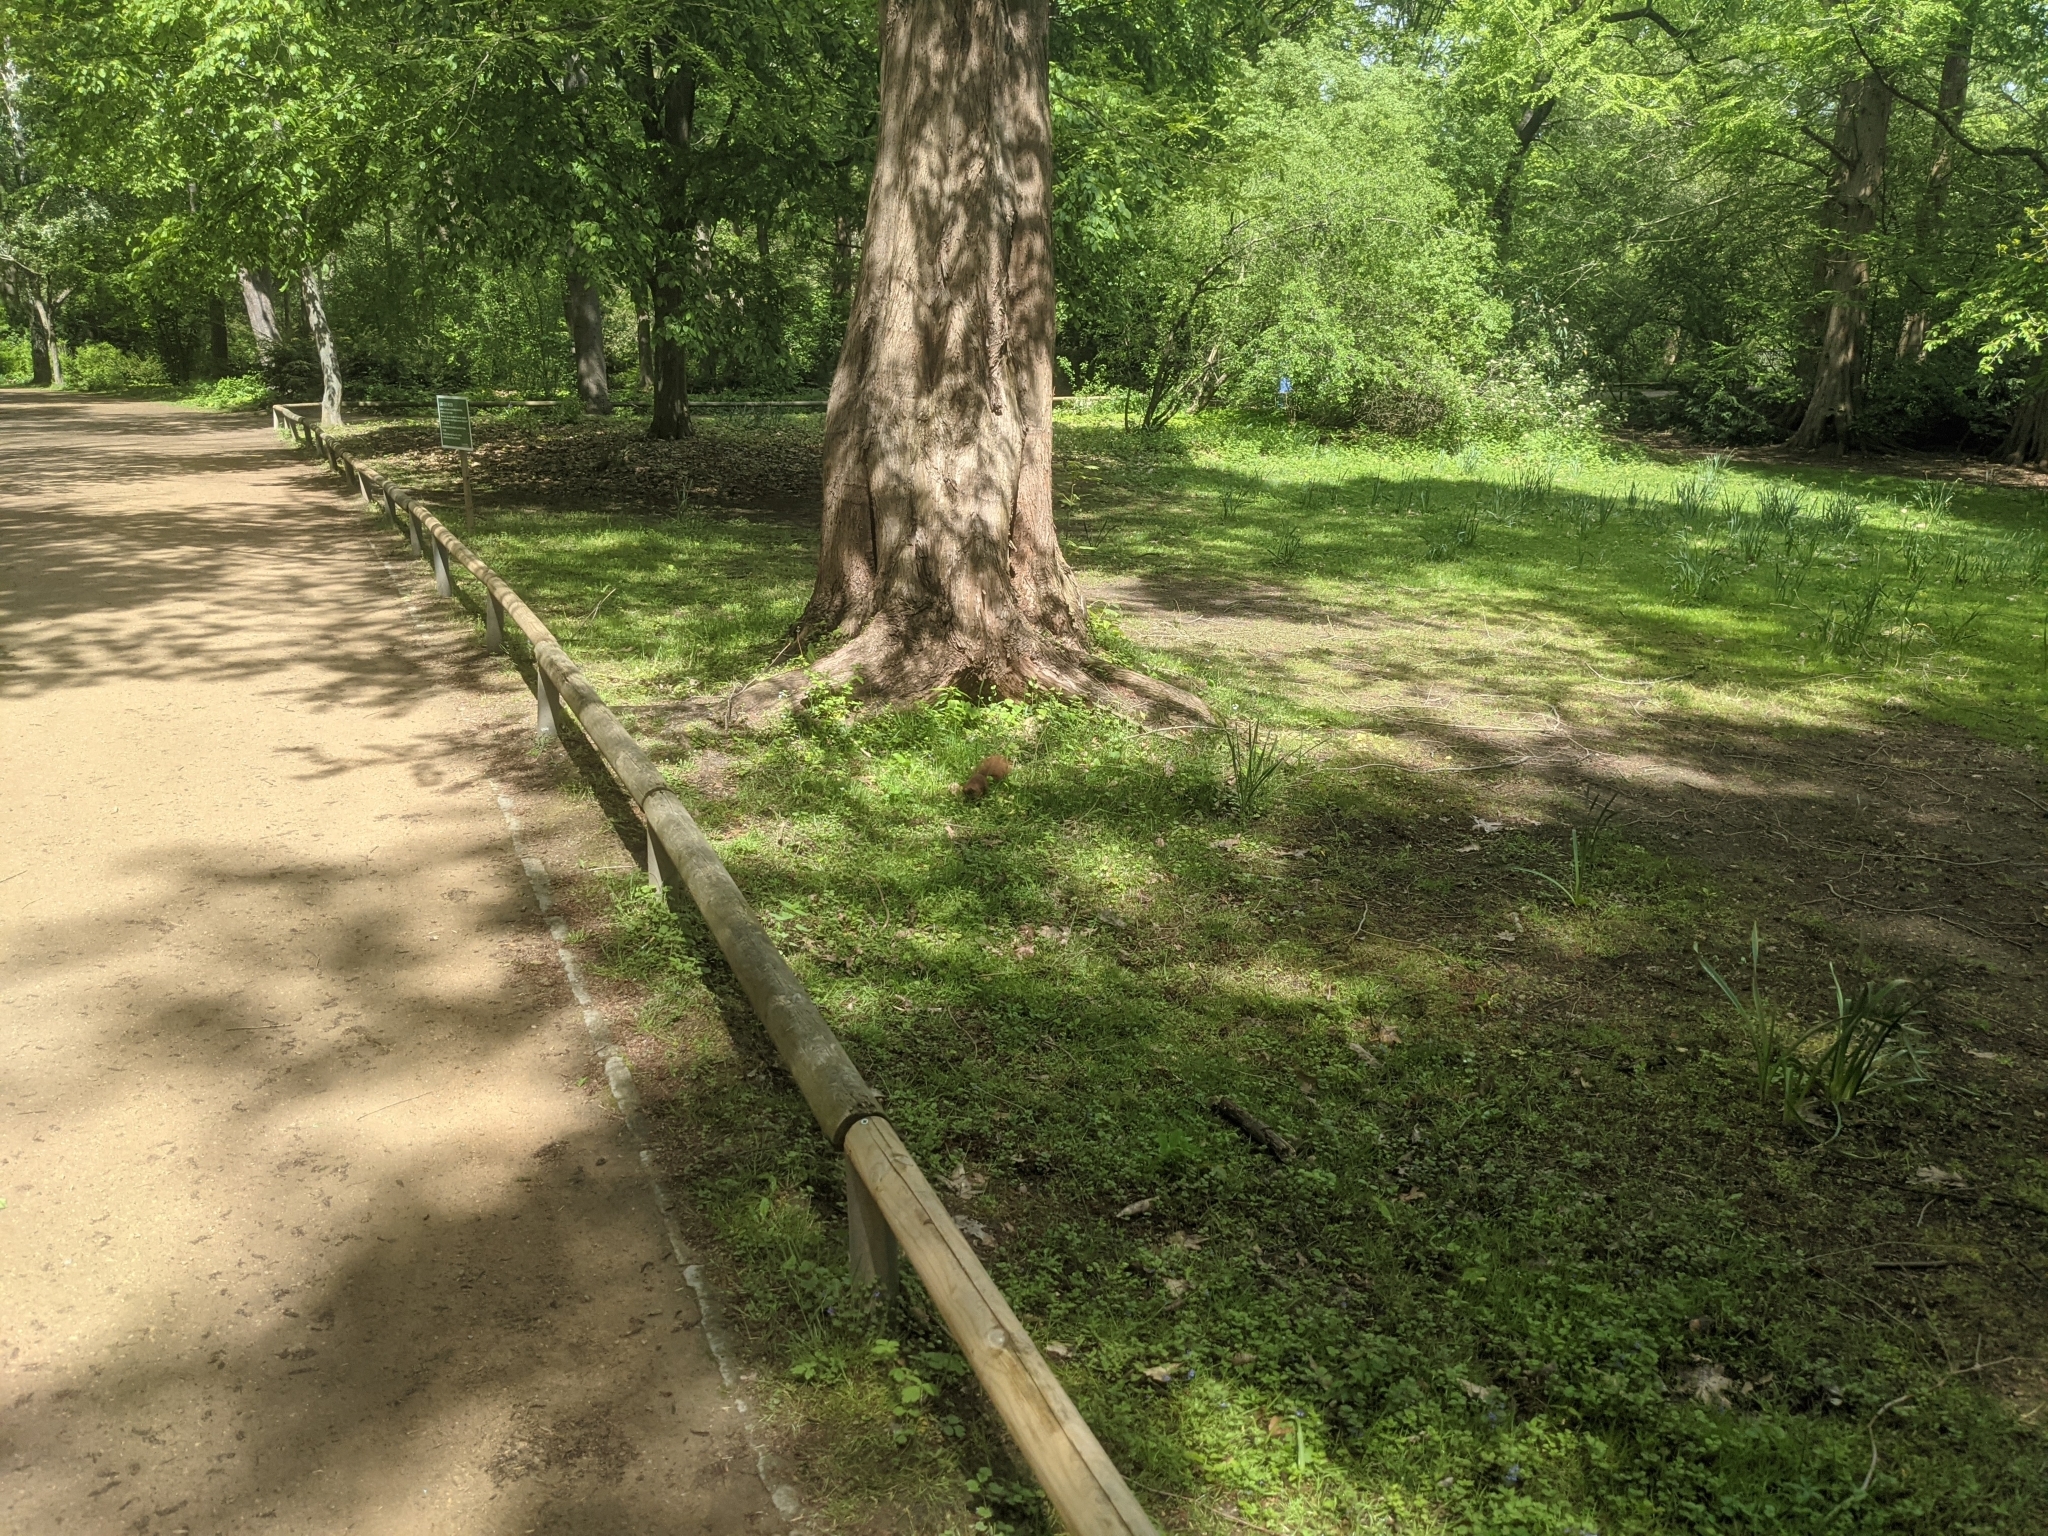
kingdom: Animalia
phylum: Chordata
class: Mammalia
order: Rodentia
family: Sciuridae
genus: Sciurus
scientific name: Sciurus vulgaris
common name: Eurasian red squirrel
